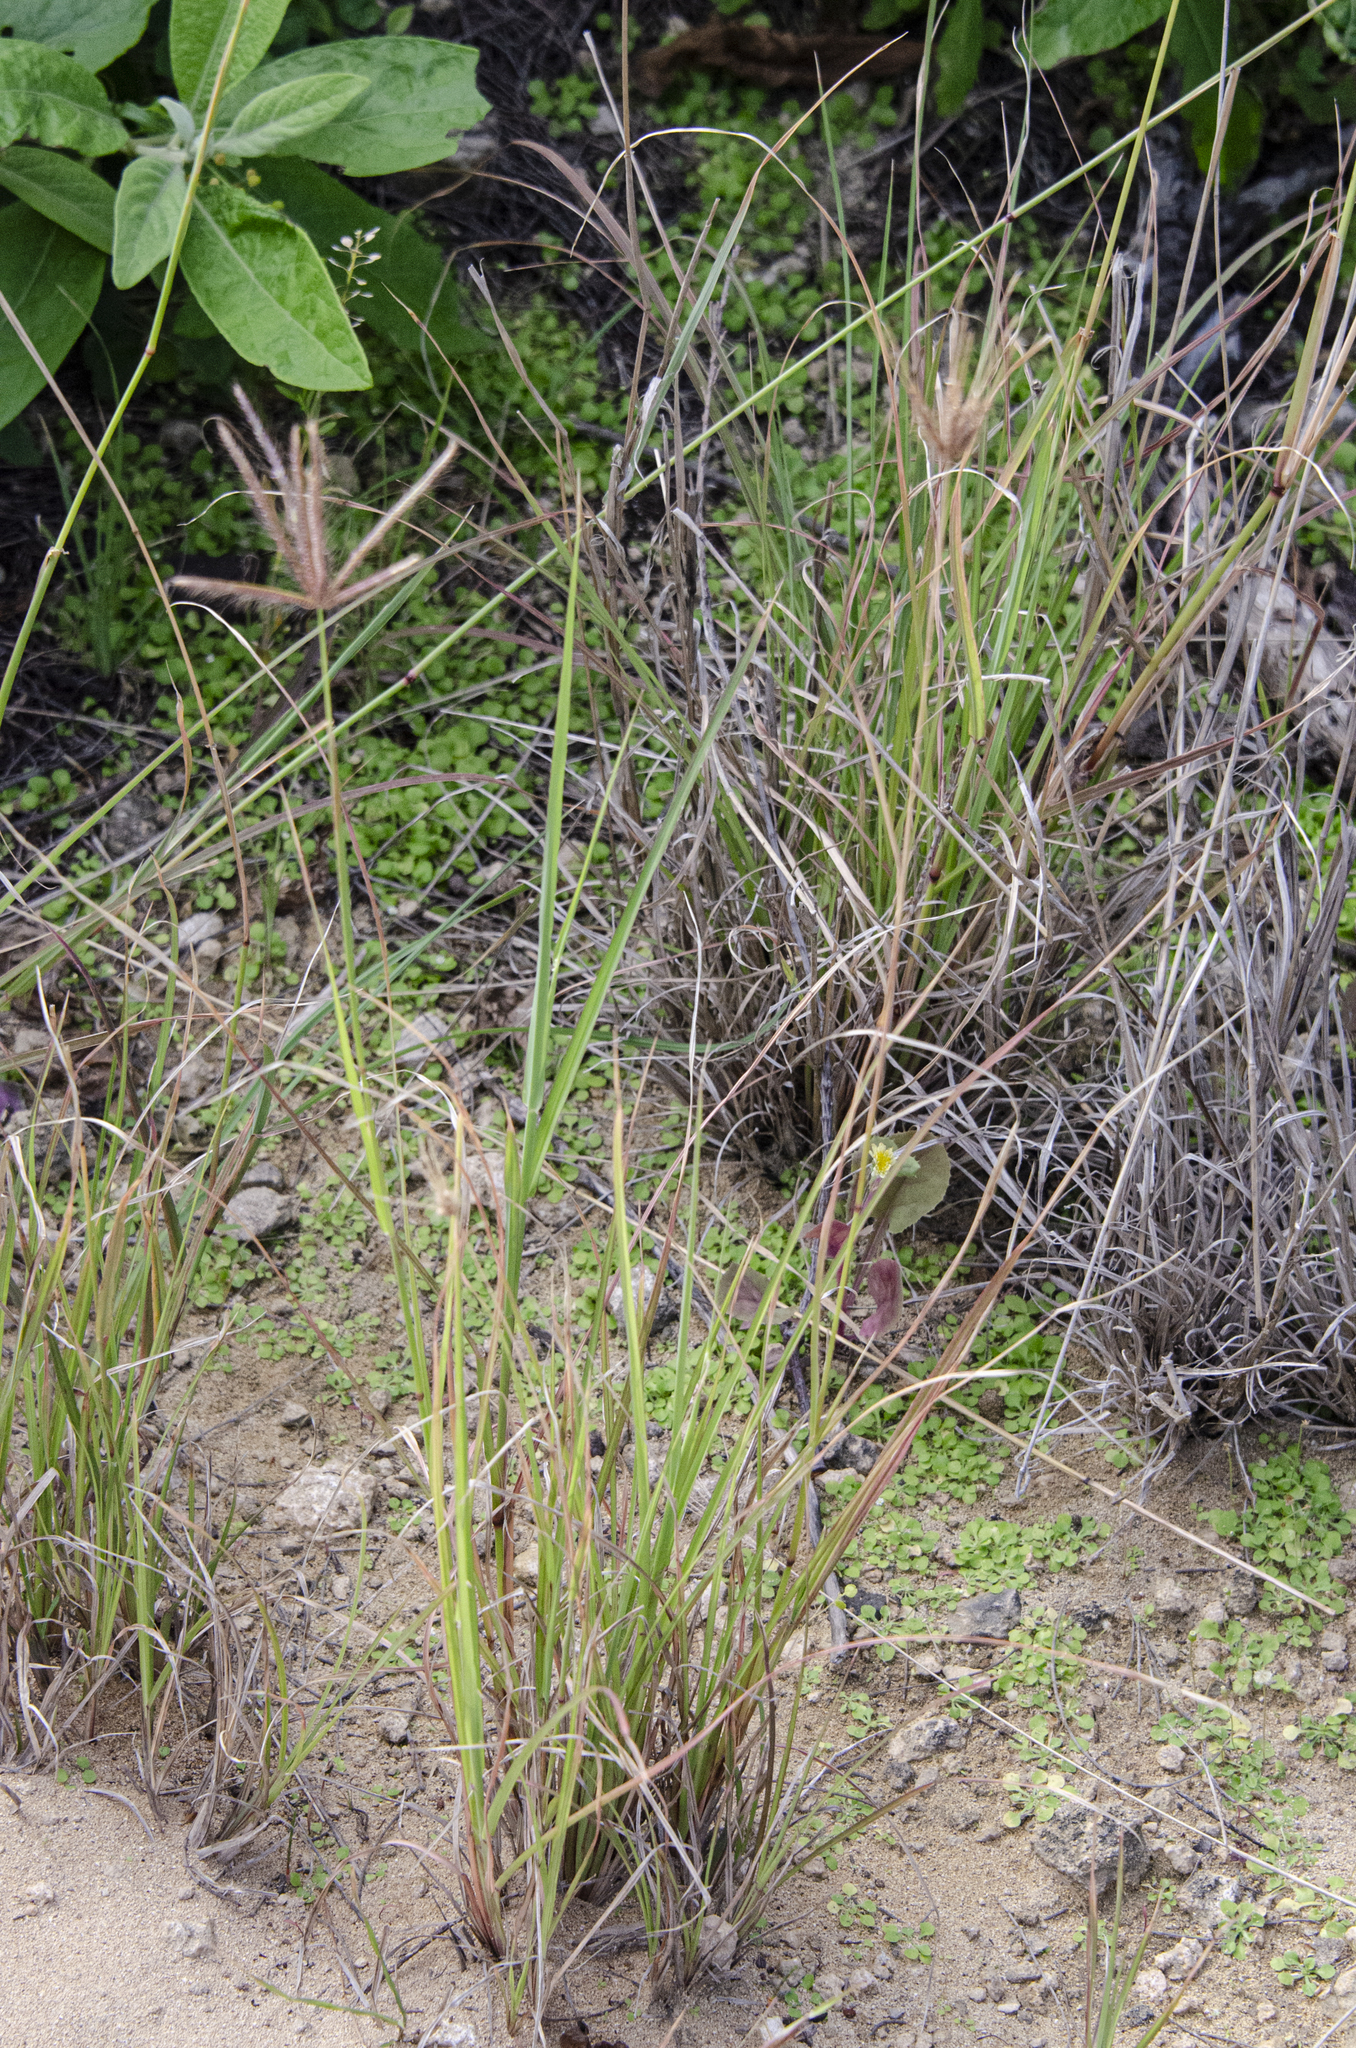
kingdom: Plantae
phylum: Tracheophyta
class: Liliopsida
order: Poales
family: Poaceae
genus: Chloris
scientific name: Chloris barbata
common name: Swollen fingergrass
